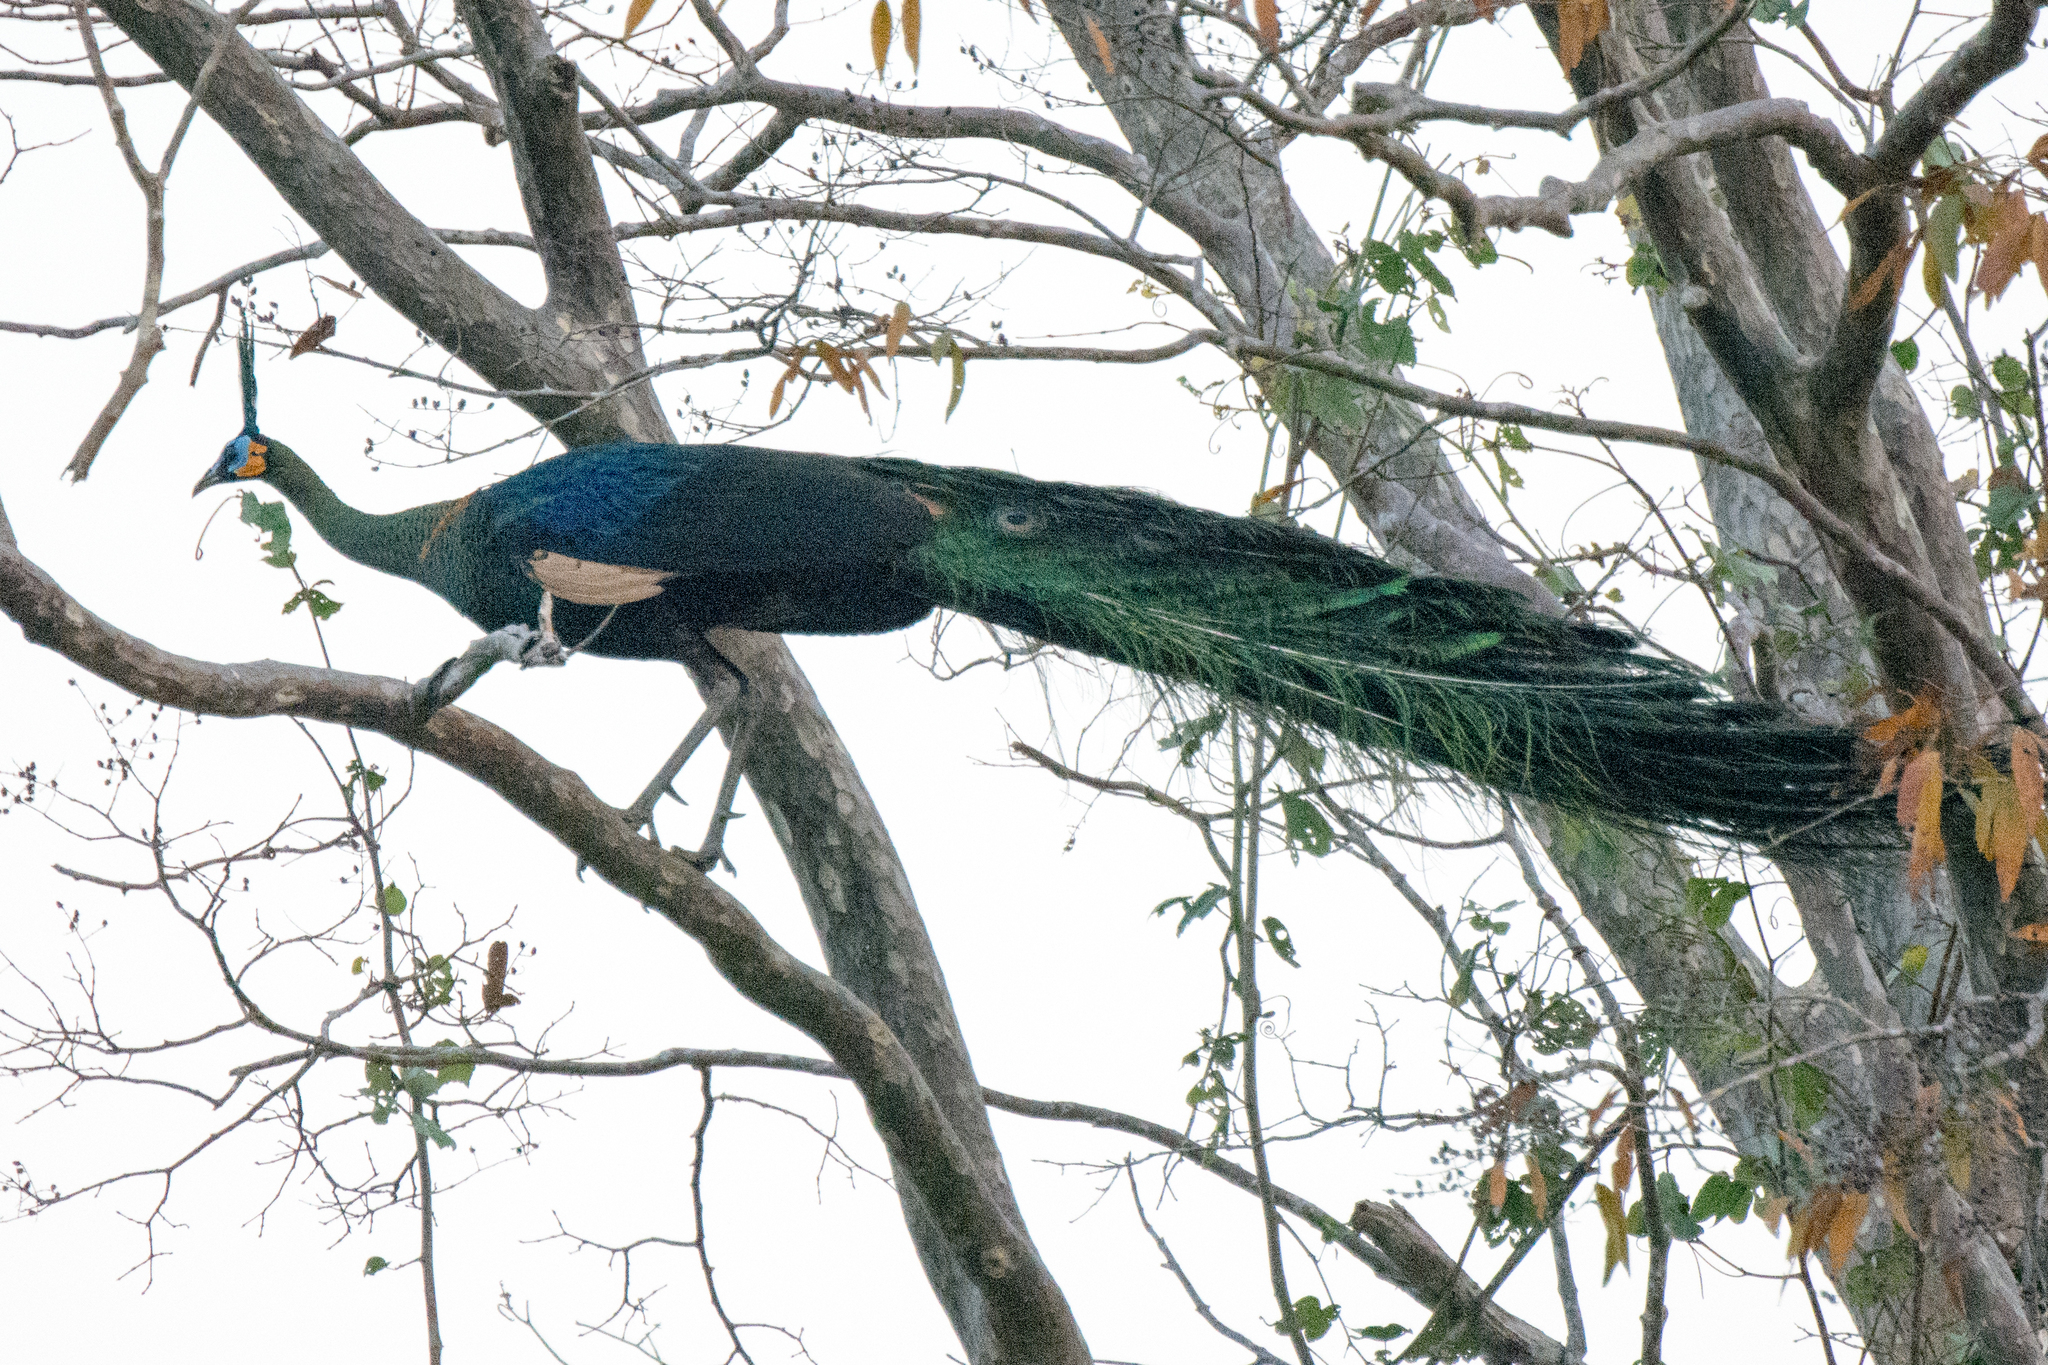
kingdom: Animalia
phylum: Chordata
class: Aves
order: Galliformes
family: Phasianidae
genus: Pavo
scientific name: Pavo muticus
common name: Green peafowl
